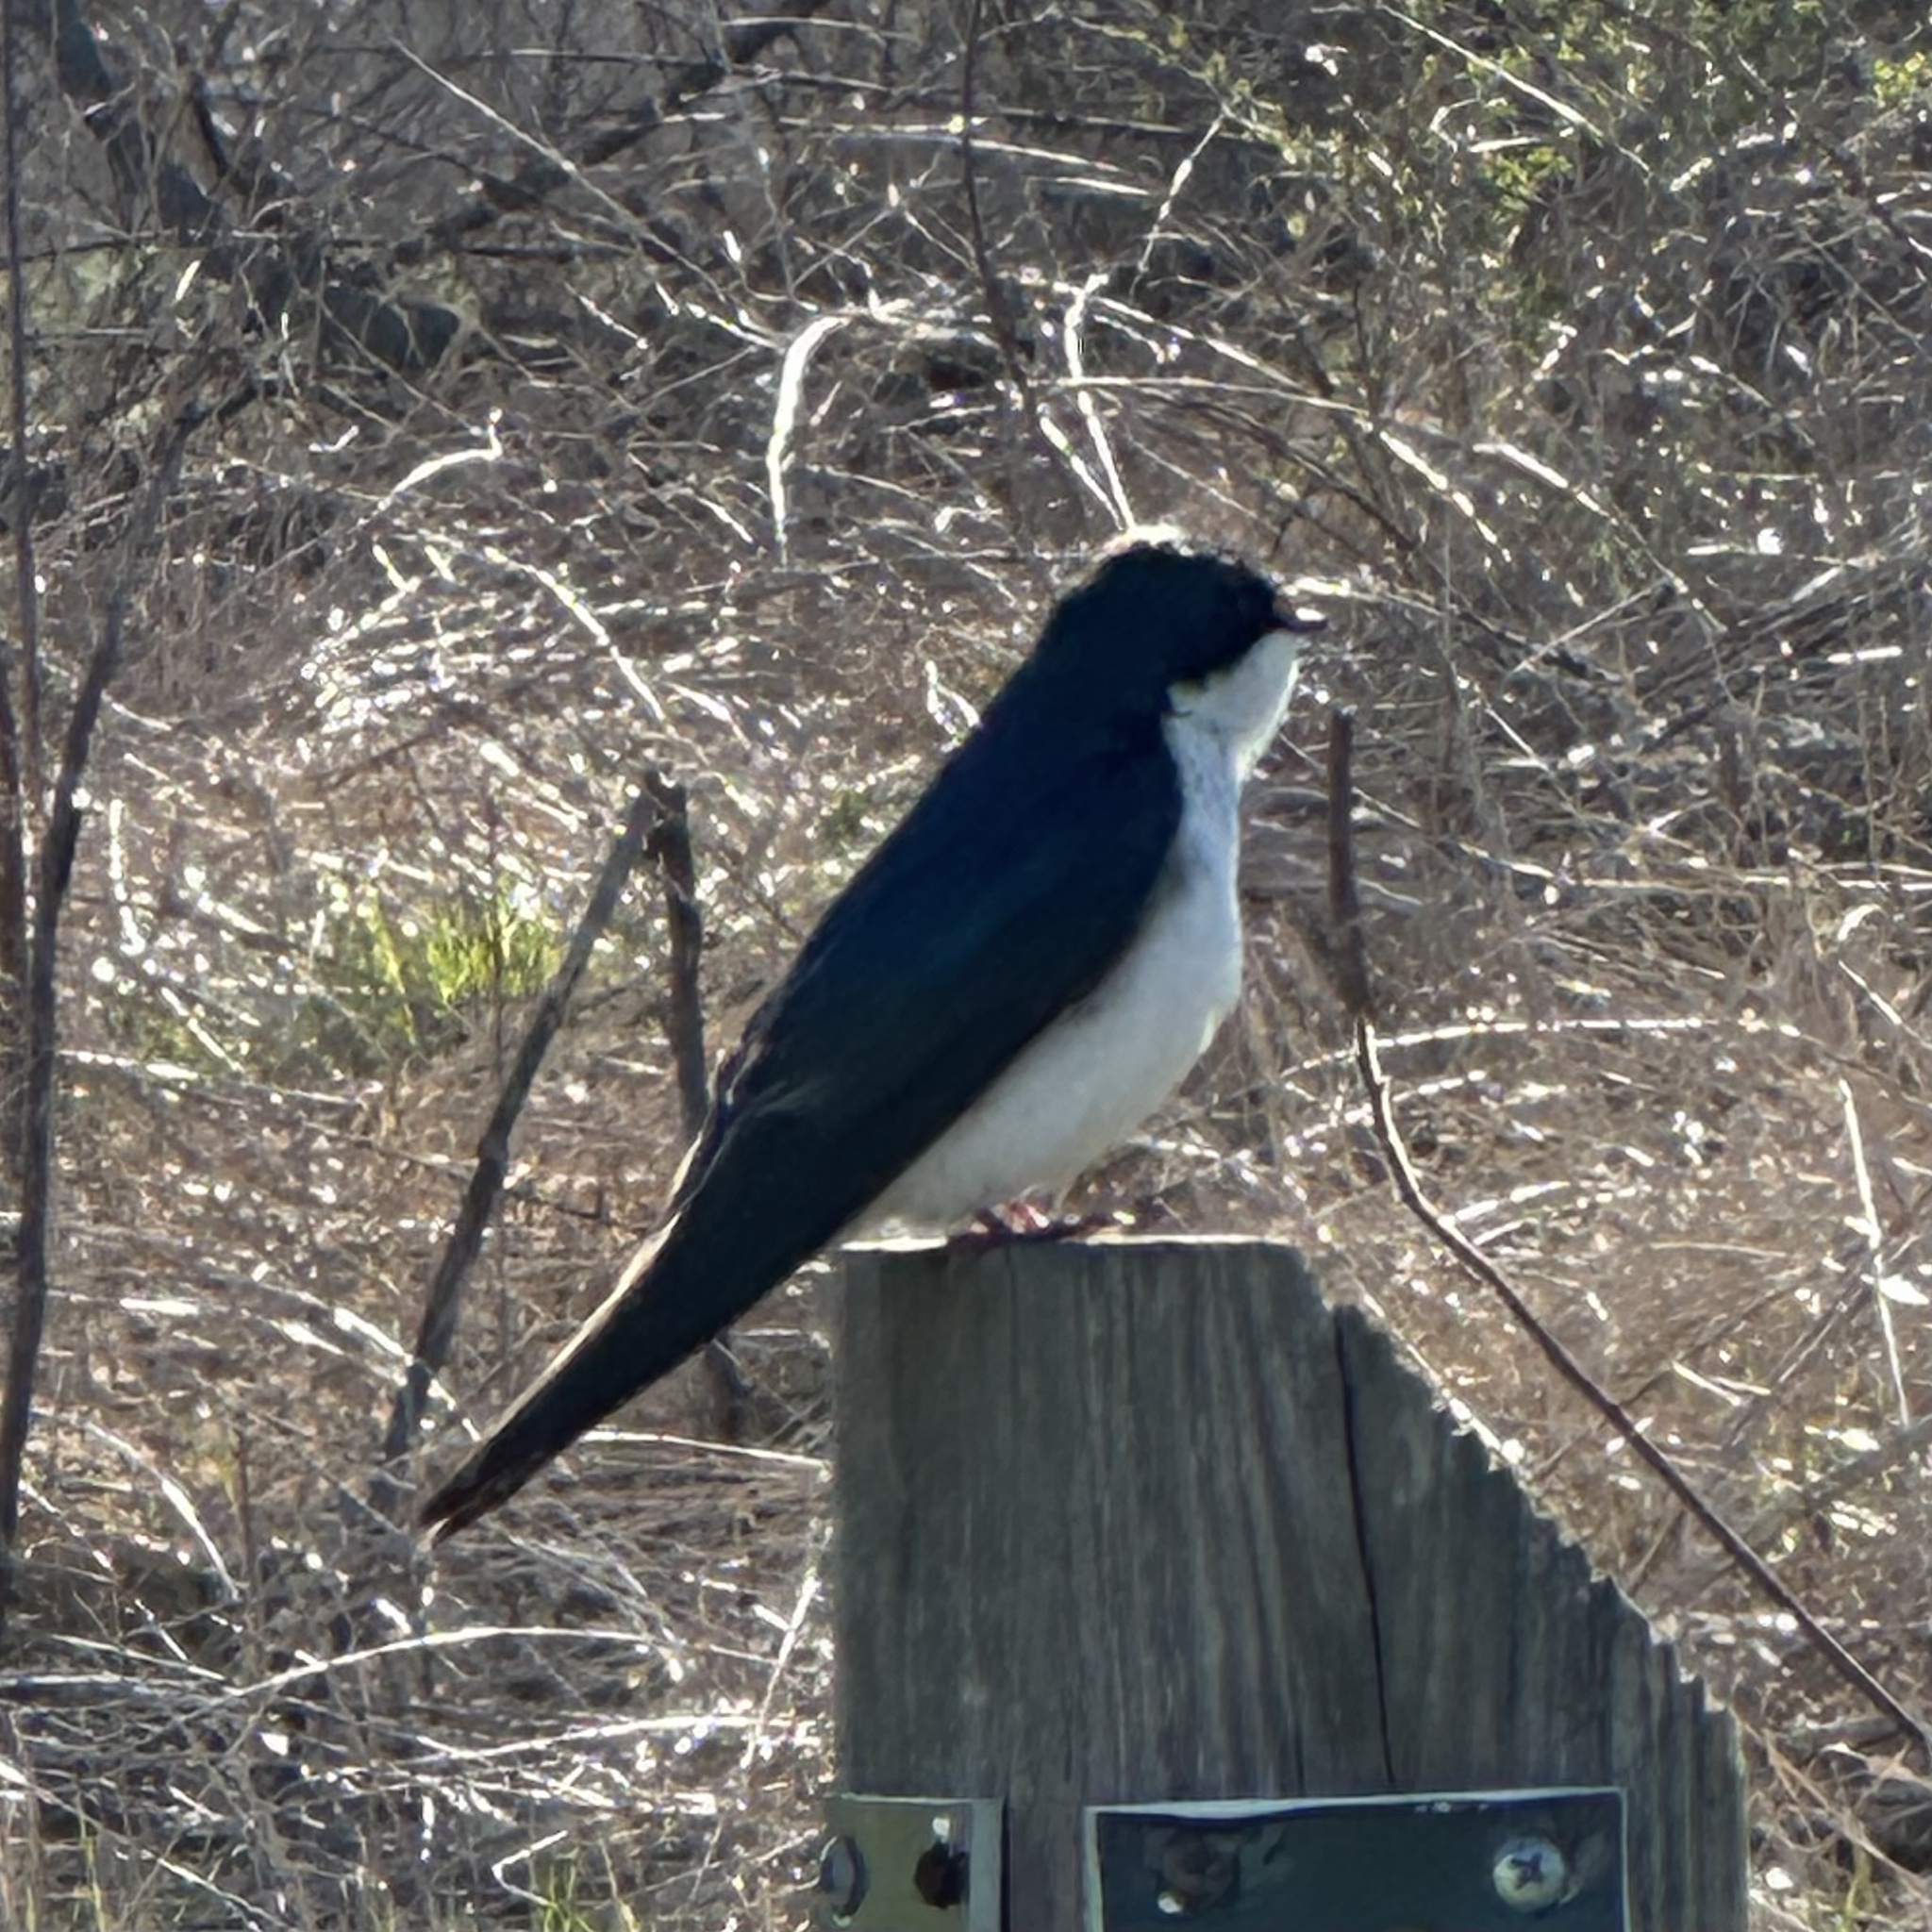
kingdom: Animalia
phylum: Chordata
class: Aves
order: Passeriformes
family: Hirundinidae
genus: Tachycineta
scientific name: Tachycineta bicolor
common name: Tree swallow
